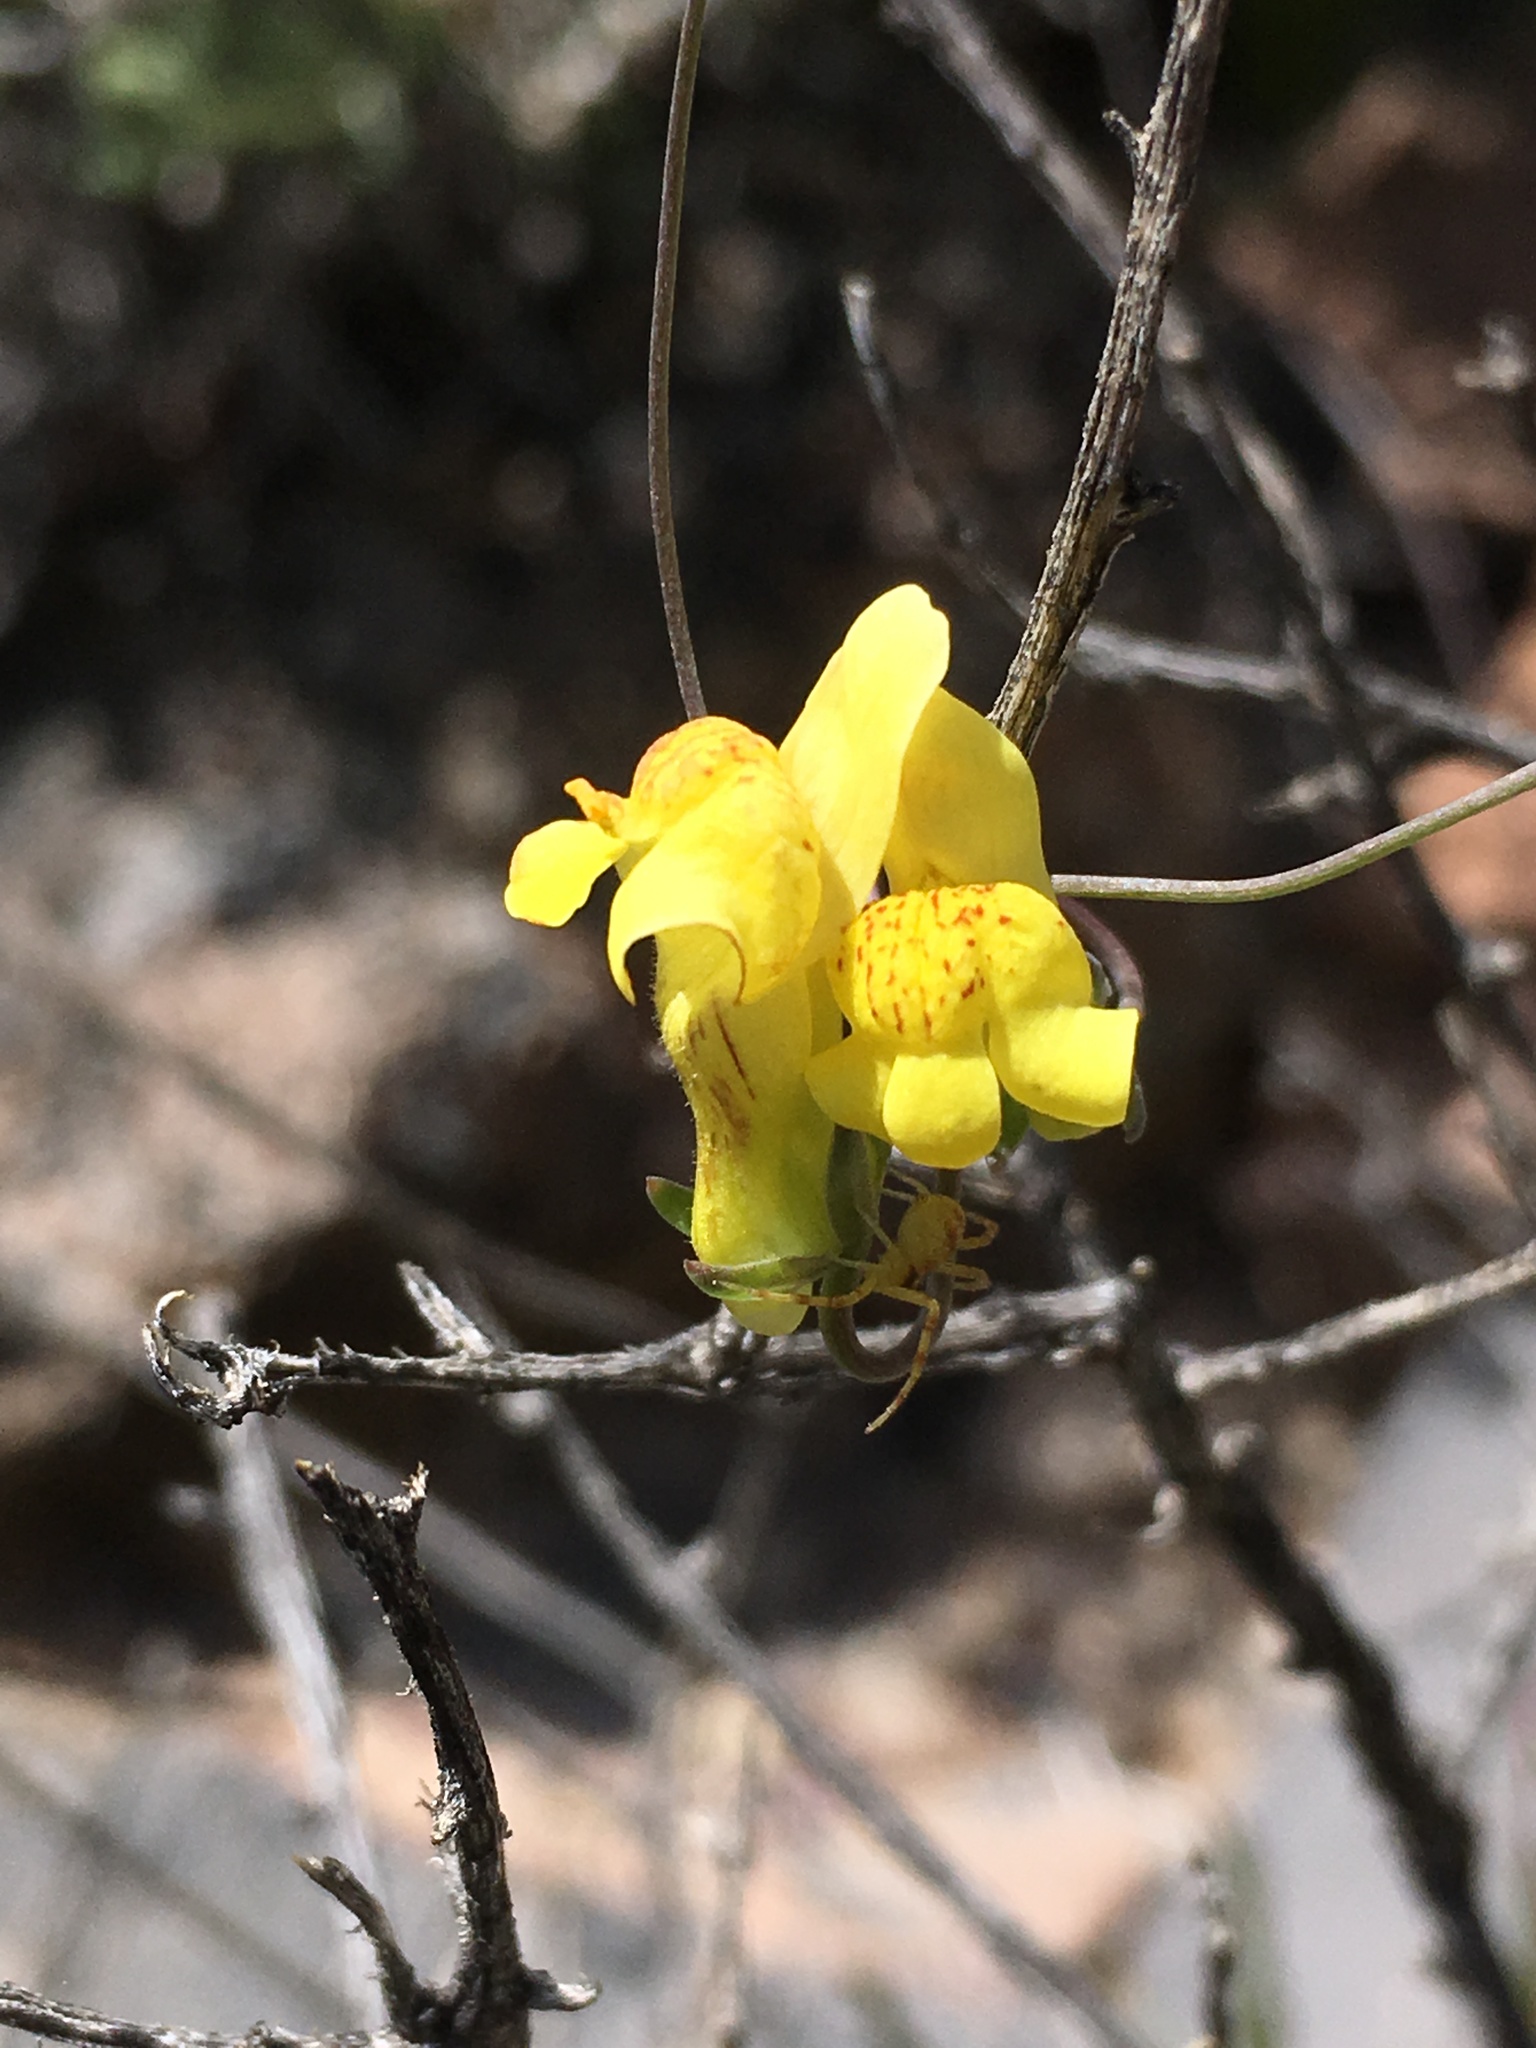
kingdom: Plantae
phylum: Tracheophyta
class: Magnoliopsida
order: Lamiales
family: Plantaginaceae
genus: Neogaerrhinum
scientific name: Neogaerrhinum filipes
